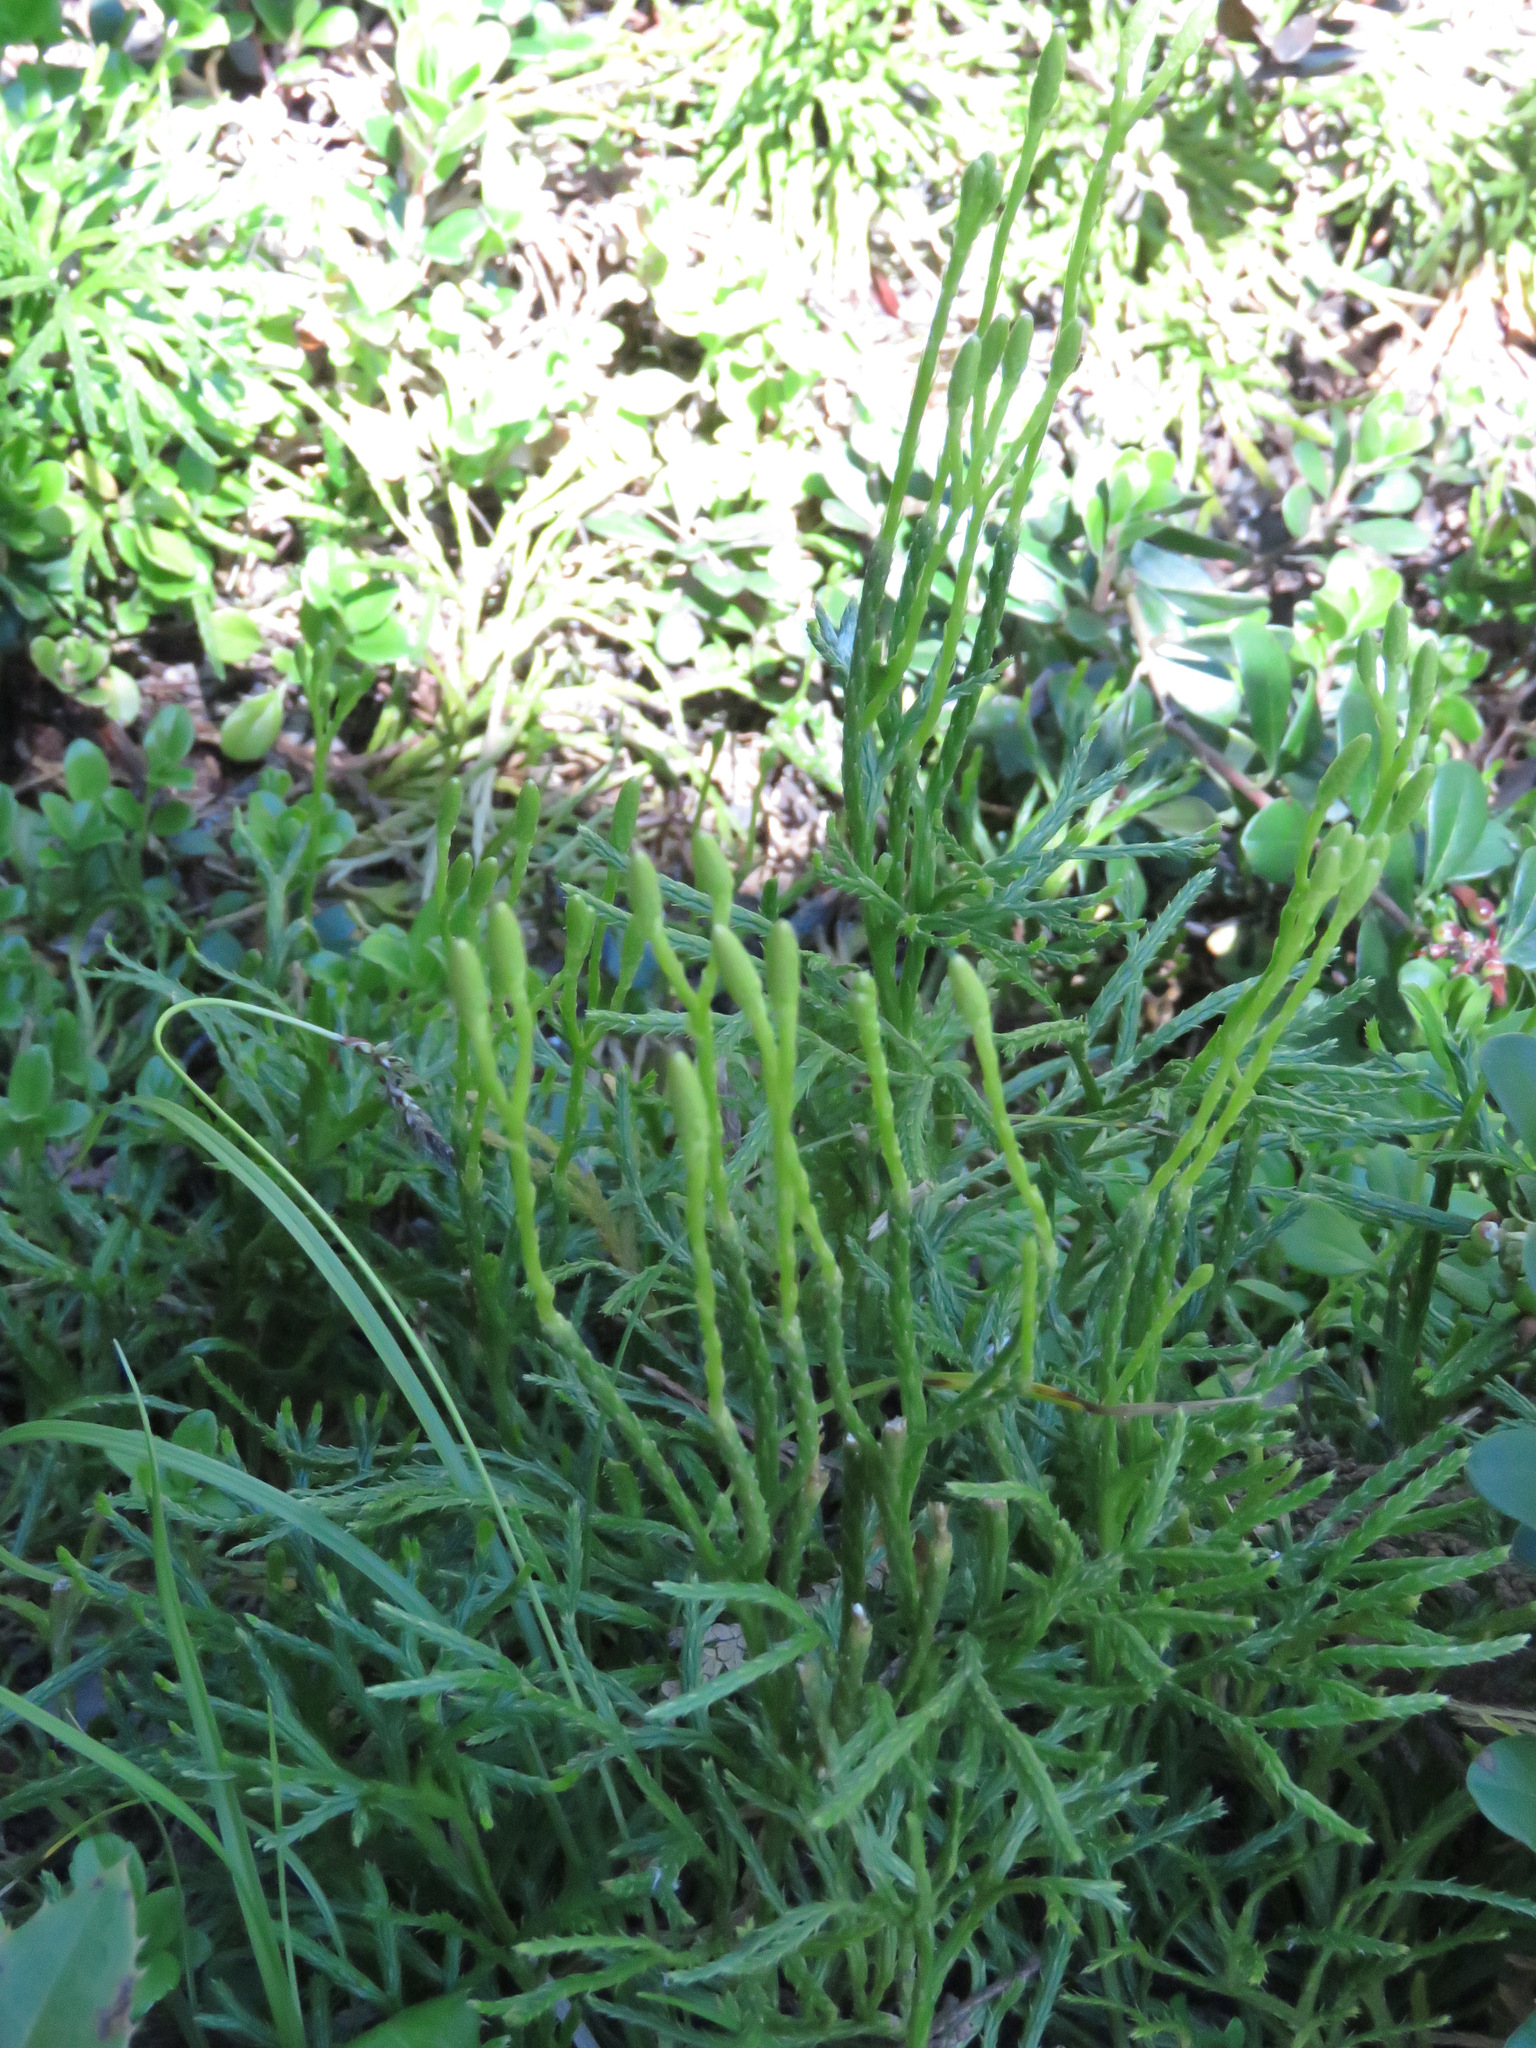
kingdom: Plantae
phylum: Tracheophyta
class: Lycopodiopsida
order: Lycopodiales
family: Lycopodiaceae
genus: Diphasiastrum
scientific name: Diphasiastrum complanatum
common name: Northern running-pine
